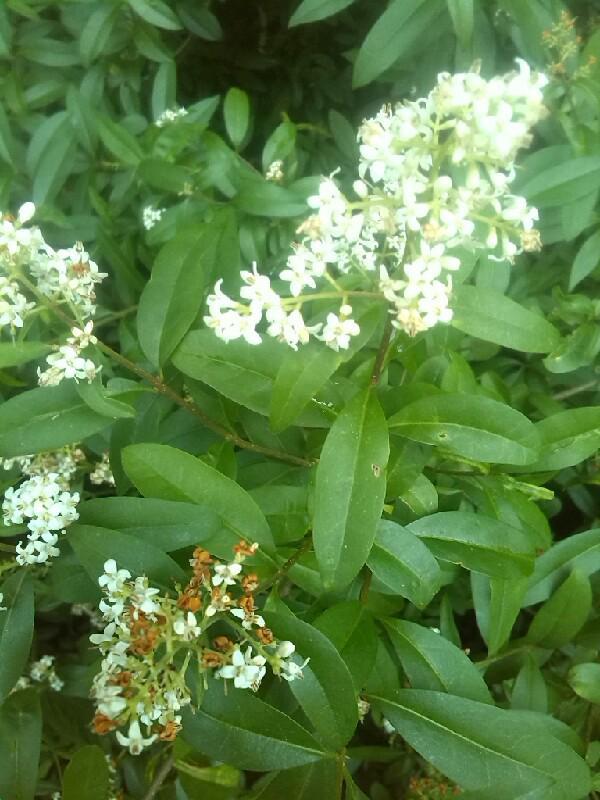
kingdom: Plantae
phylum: Tracheophyta
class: Magnoliopsida
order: Lamiales
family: Oleaceae
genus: Ligustrum
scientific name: Ligustrum vulgare
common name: Wild privet
